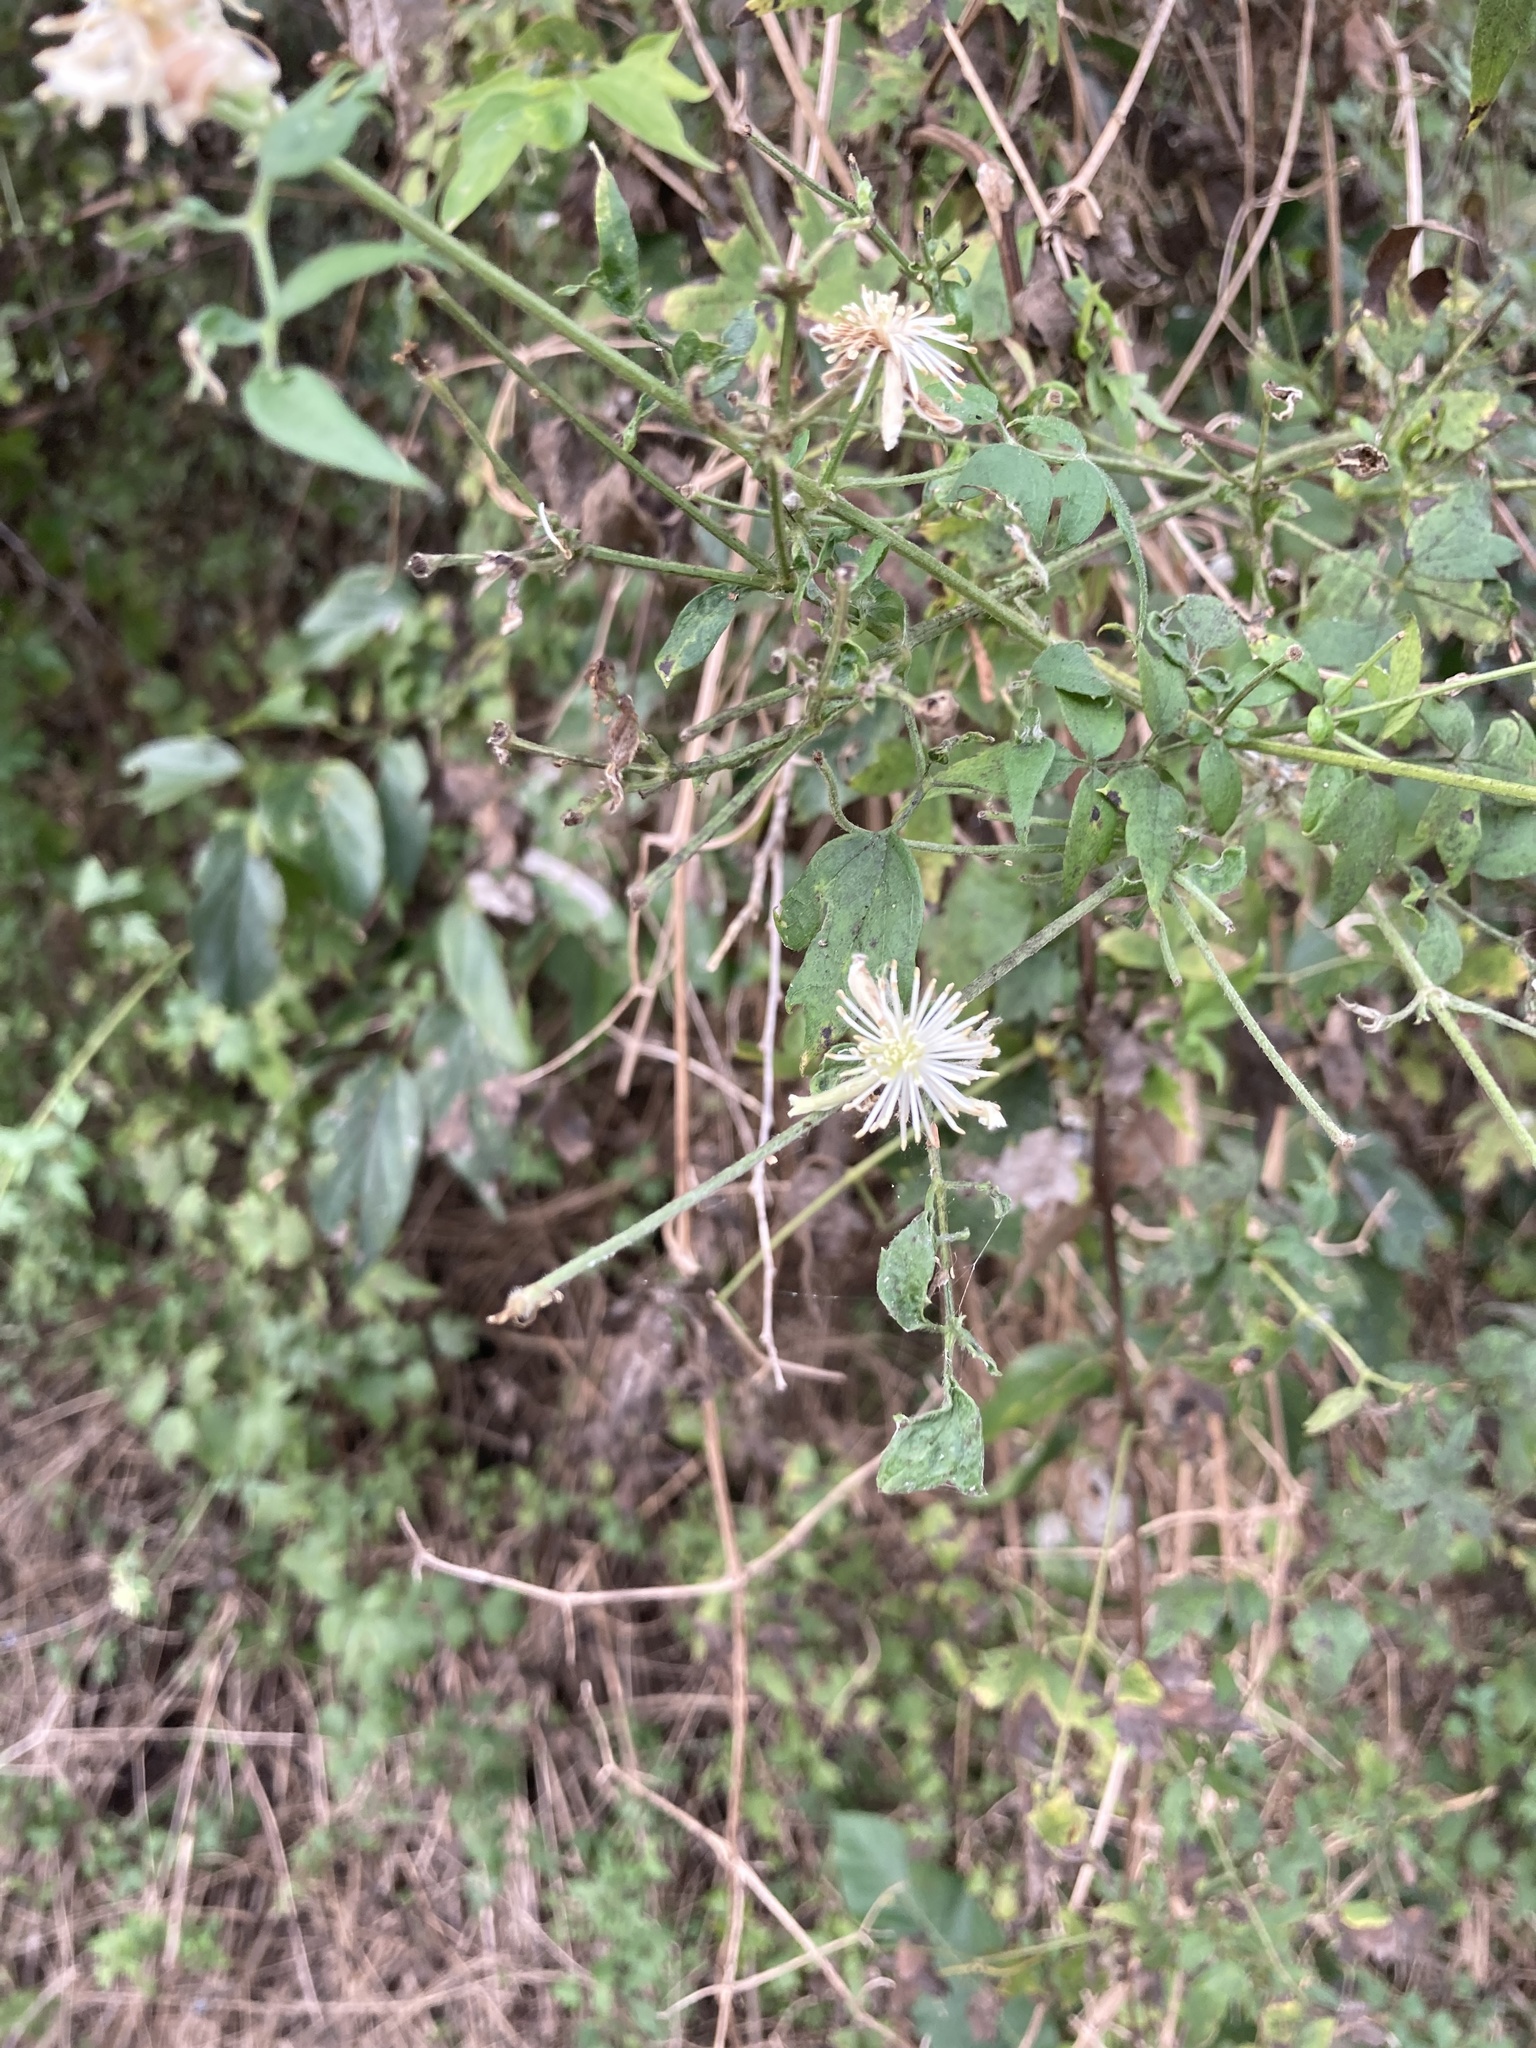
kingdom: Plantae
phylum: Tracheophyta
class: Magnoliopsida
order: Ranunculales
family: Ranunculaceae
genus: Clematis
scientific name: Clematis drummondii
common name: Texas virgin's bower
